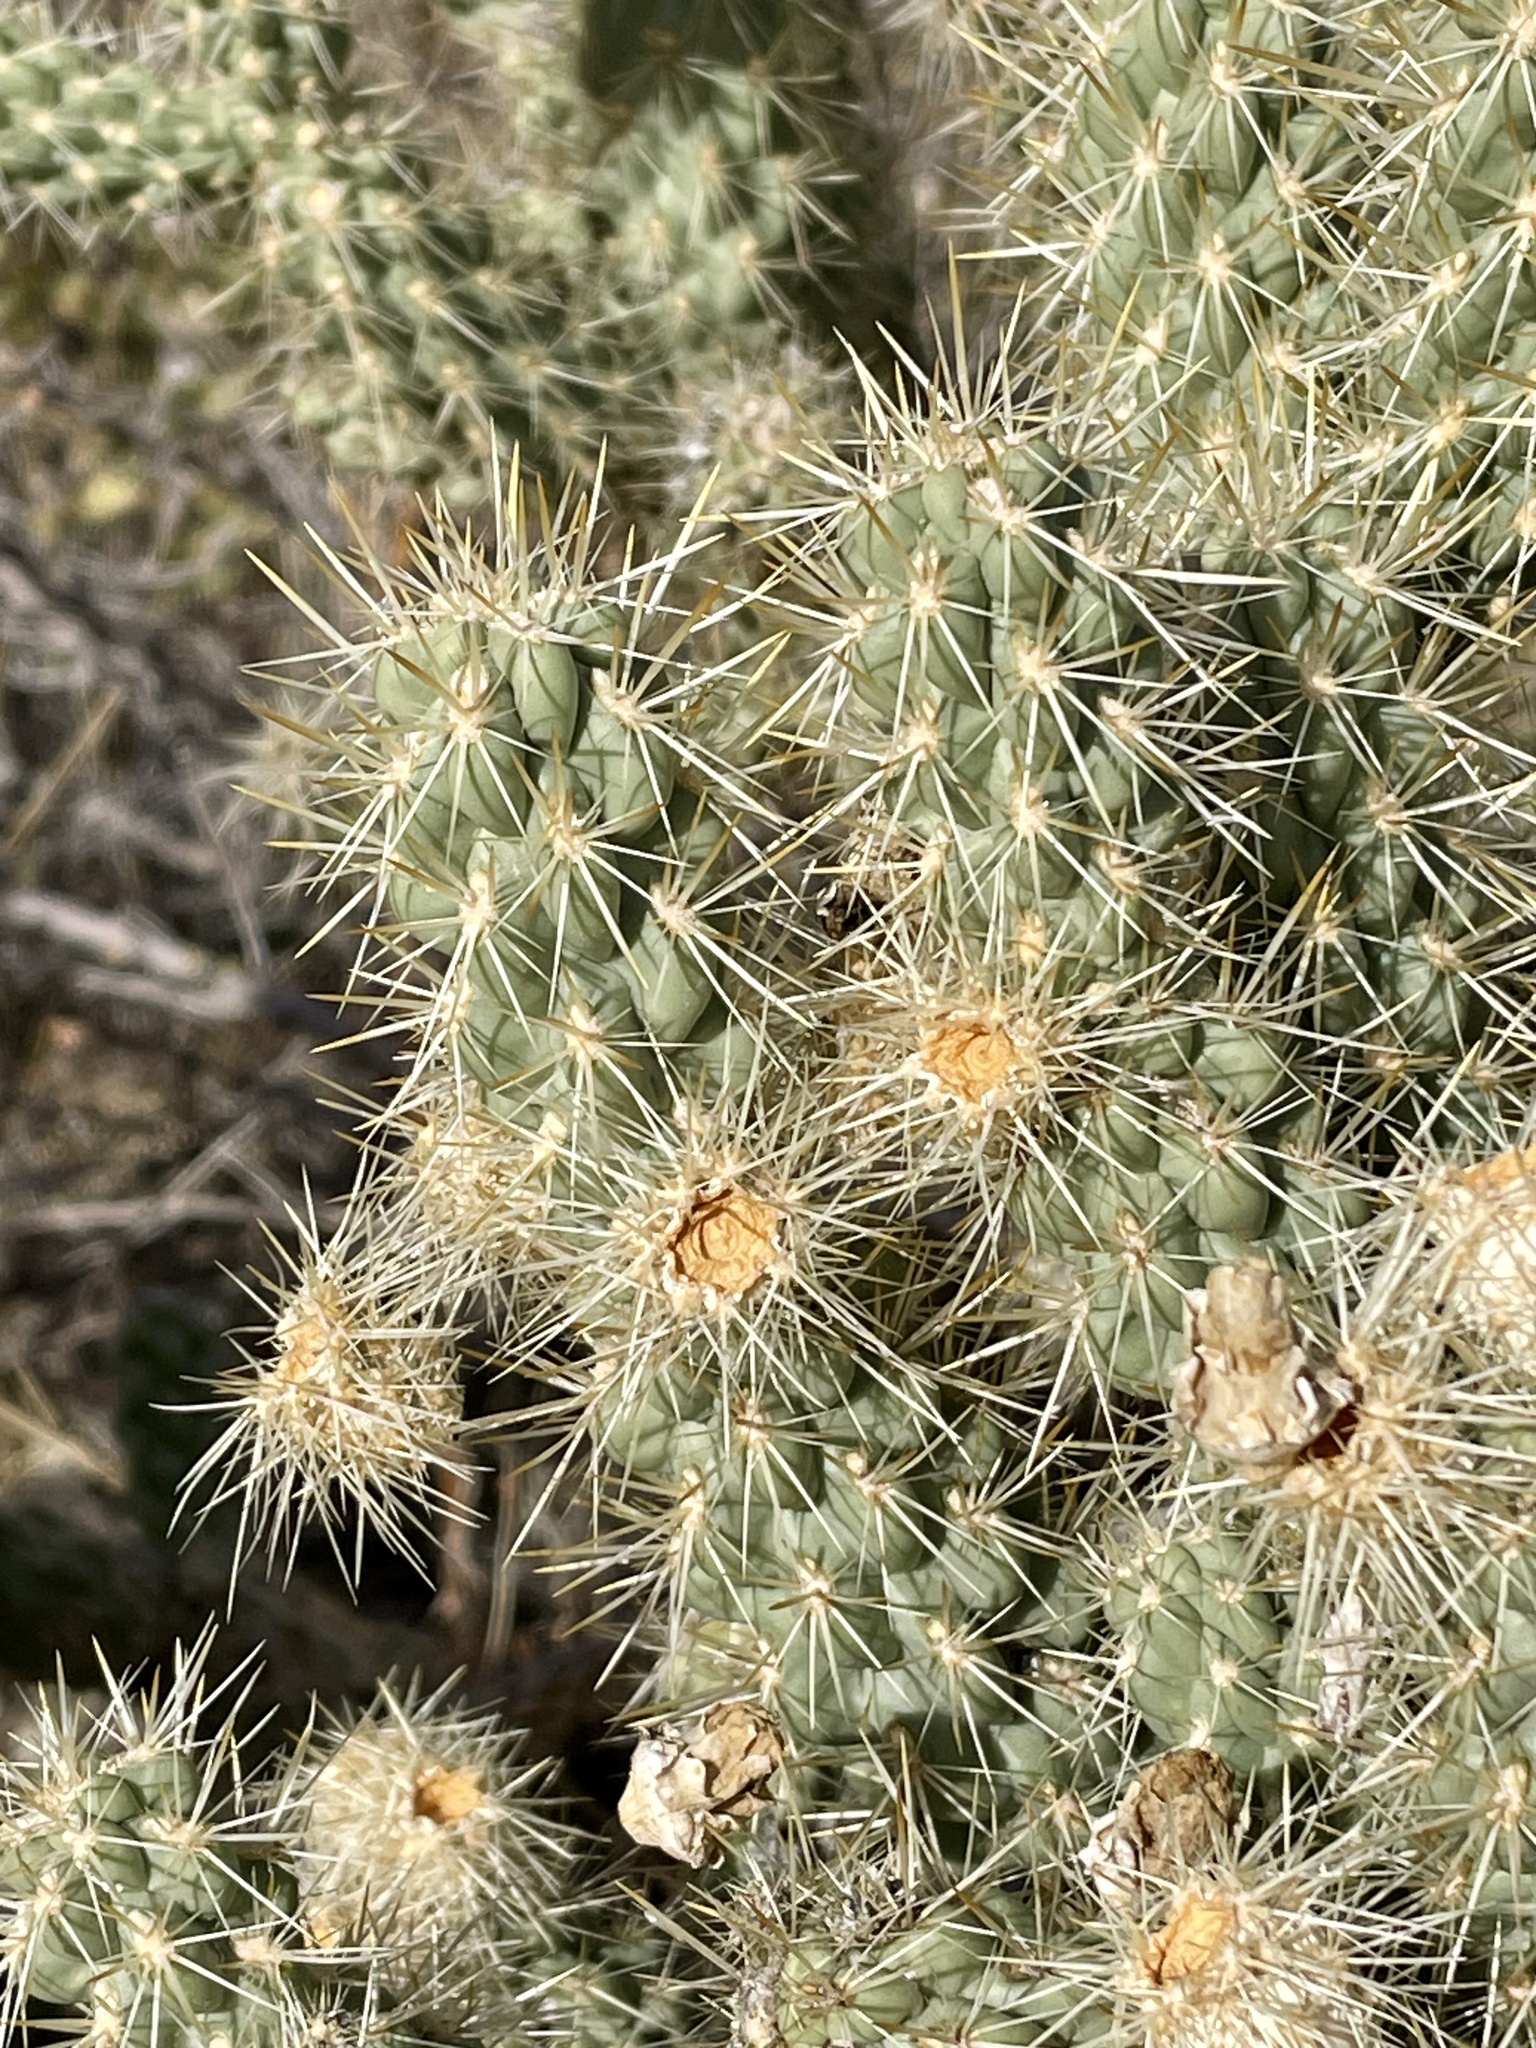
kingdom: Plantae
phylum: Tracheophyta
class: Magnoliopsida
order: Caryophyllales
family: Cactaceae
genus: Cylindropuntia
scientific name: Cylindropuntia echinocarpa
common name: Ground cholla
